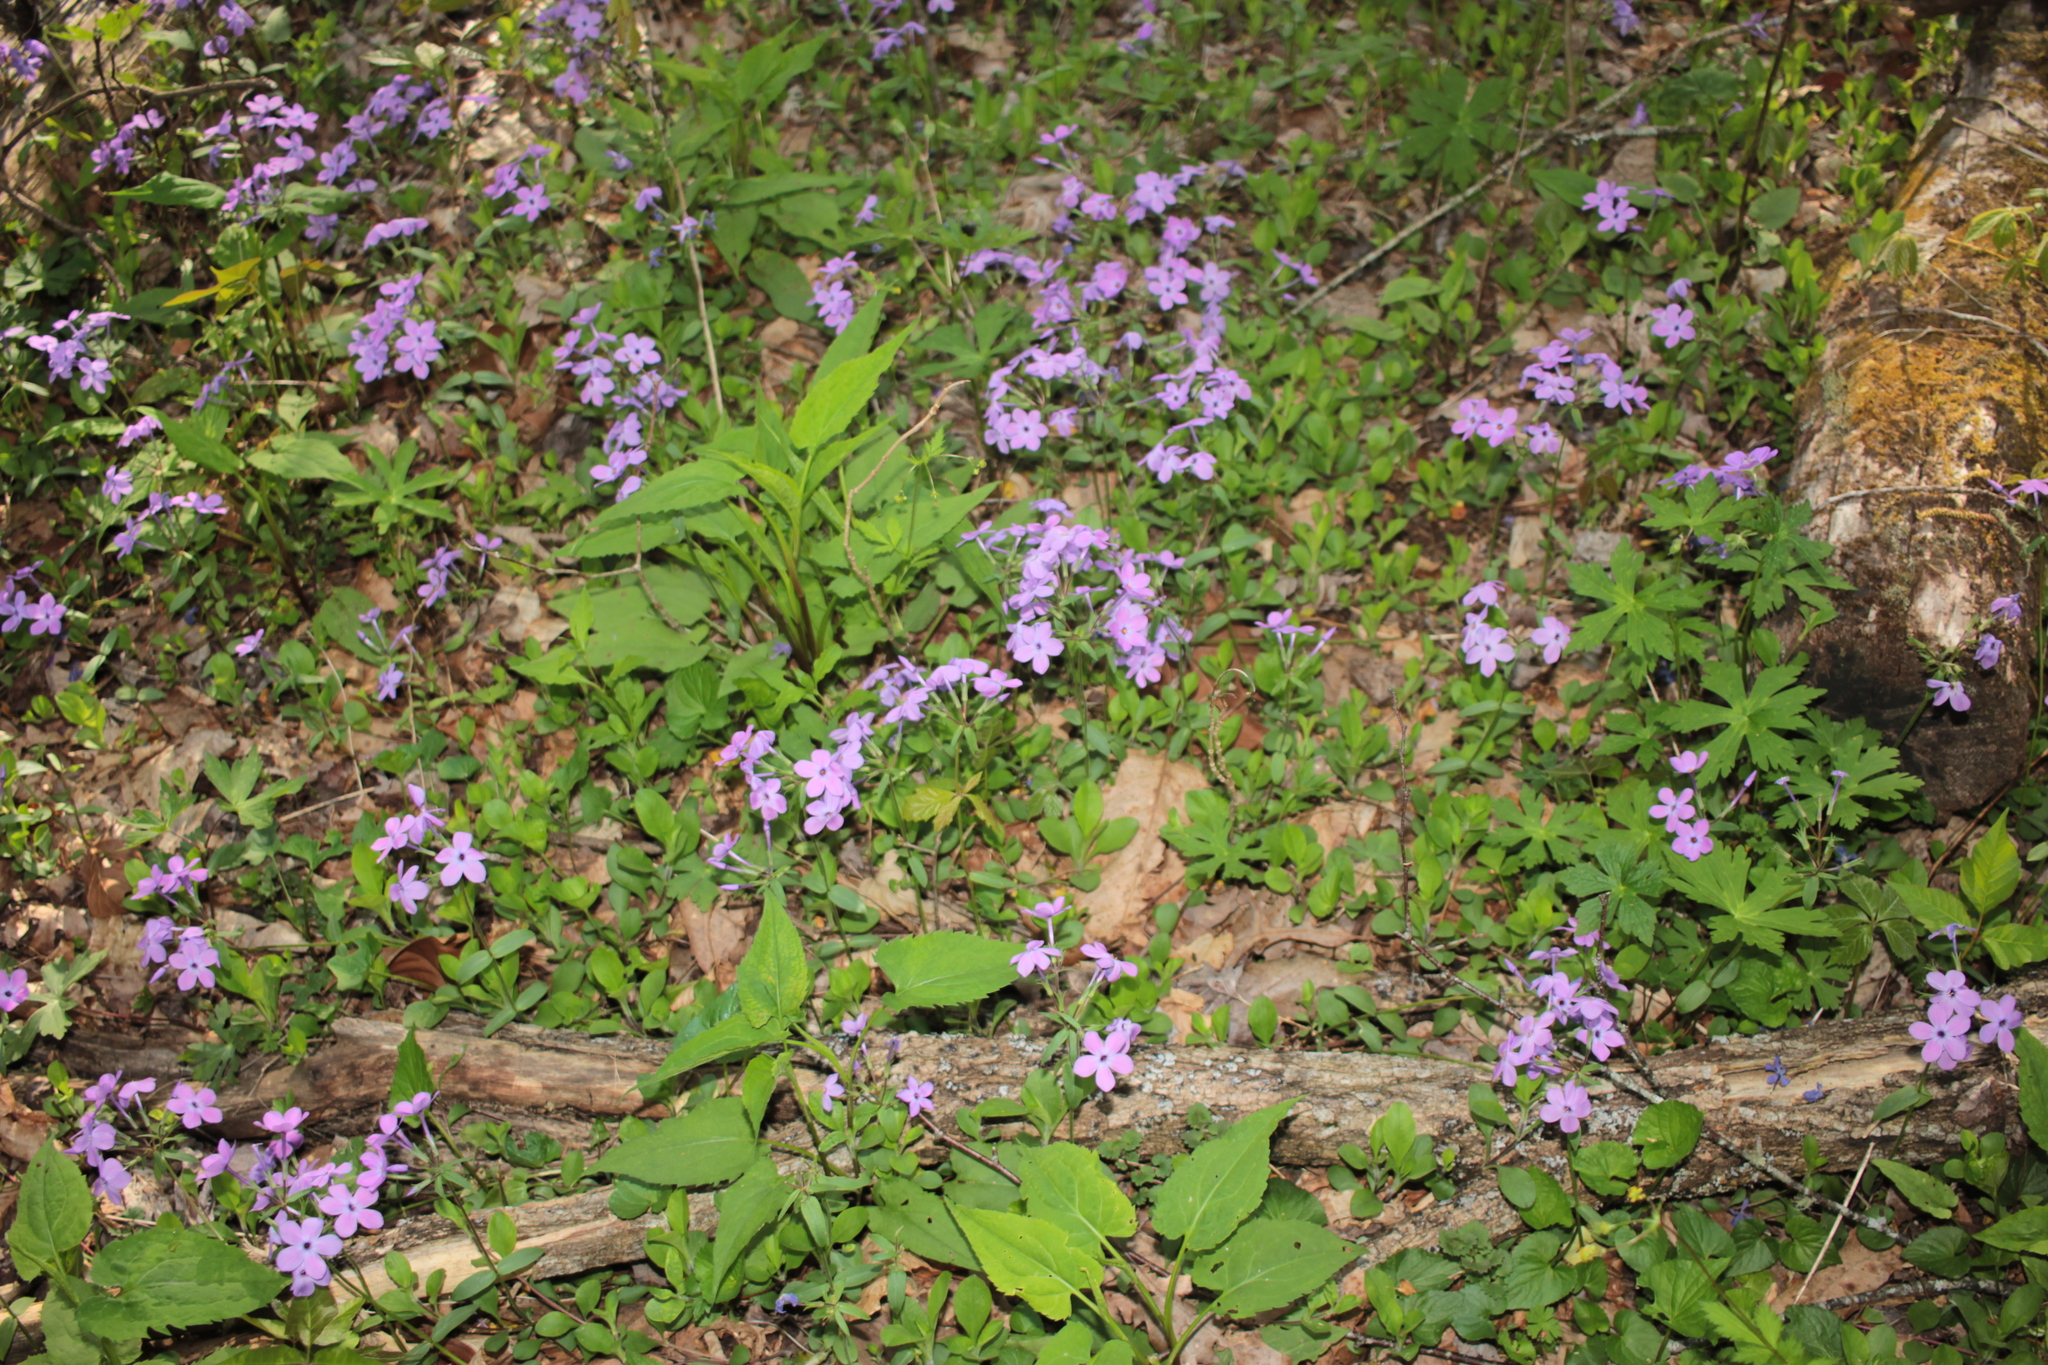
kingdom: Plantae
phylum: Tracheophyta
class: Magnoliopsida
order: Ericales
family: Polemoniaceae
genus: Phlox
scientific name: Phlox stolonifera
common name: Creeping phlox
